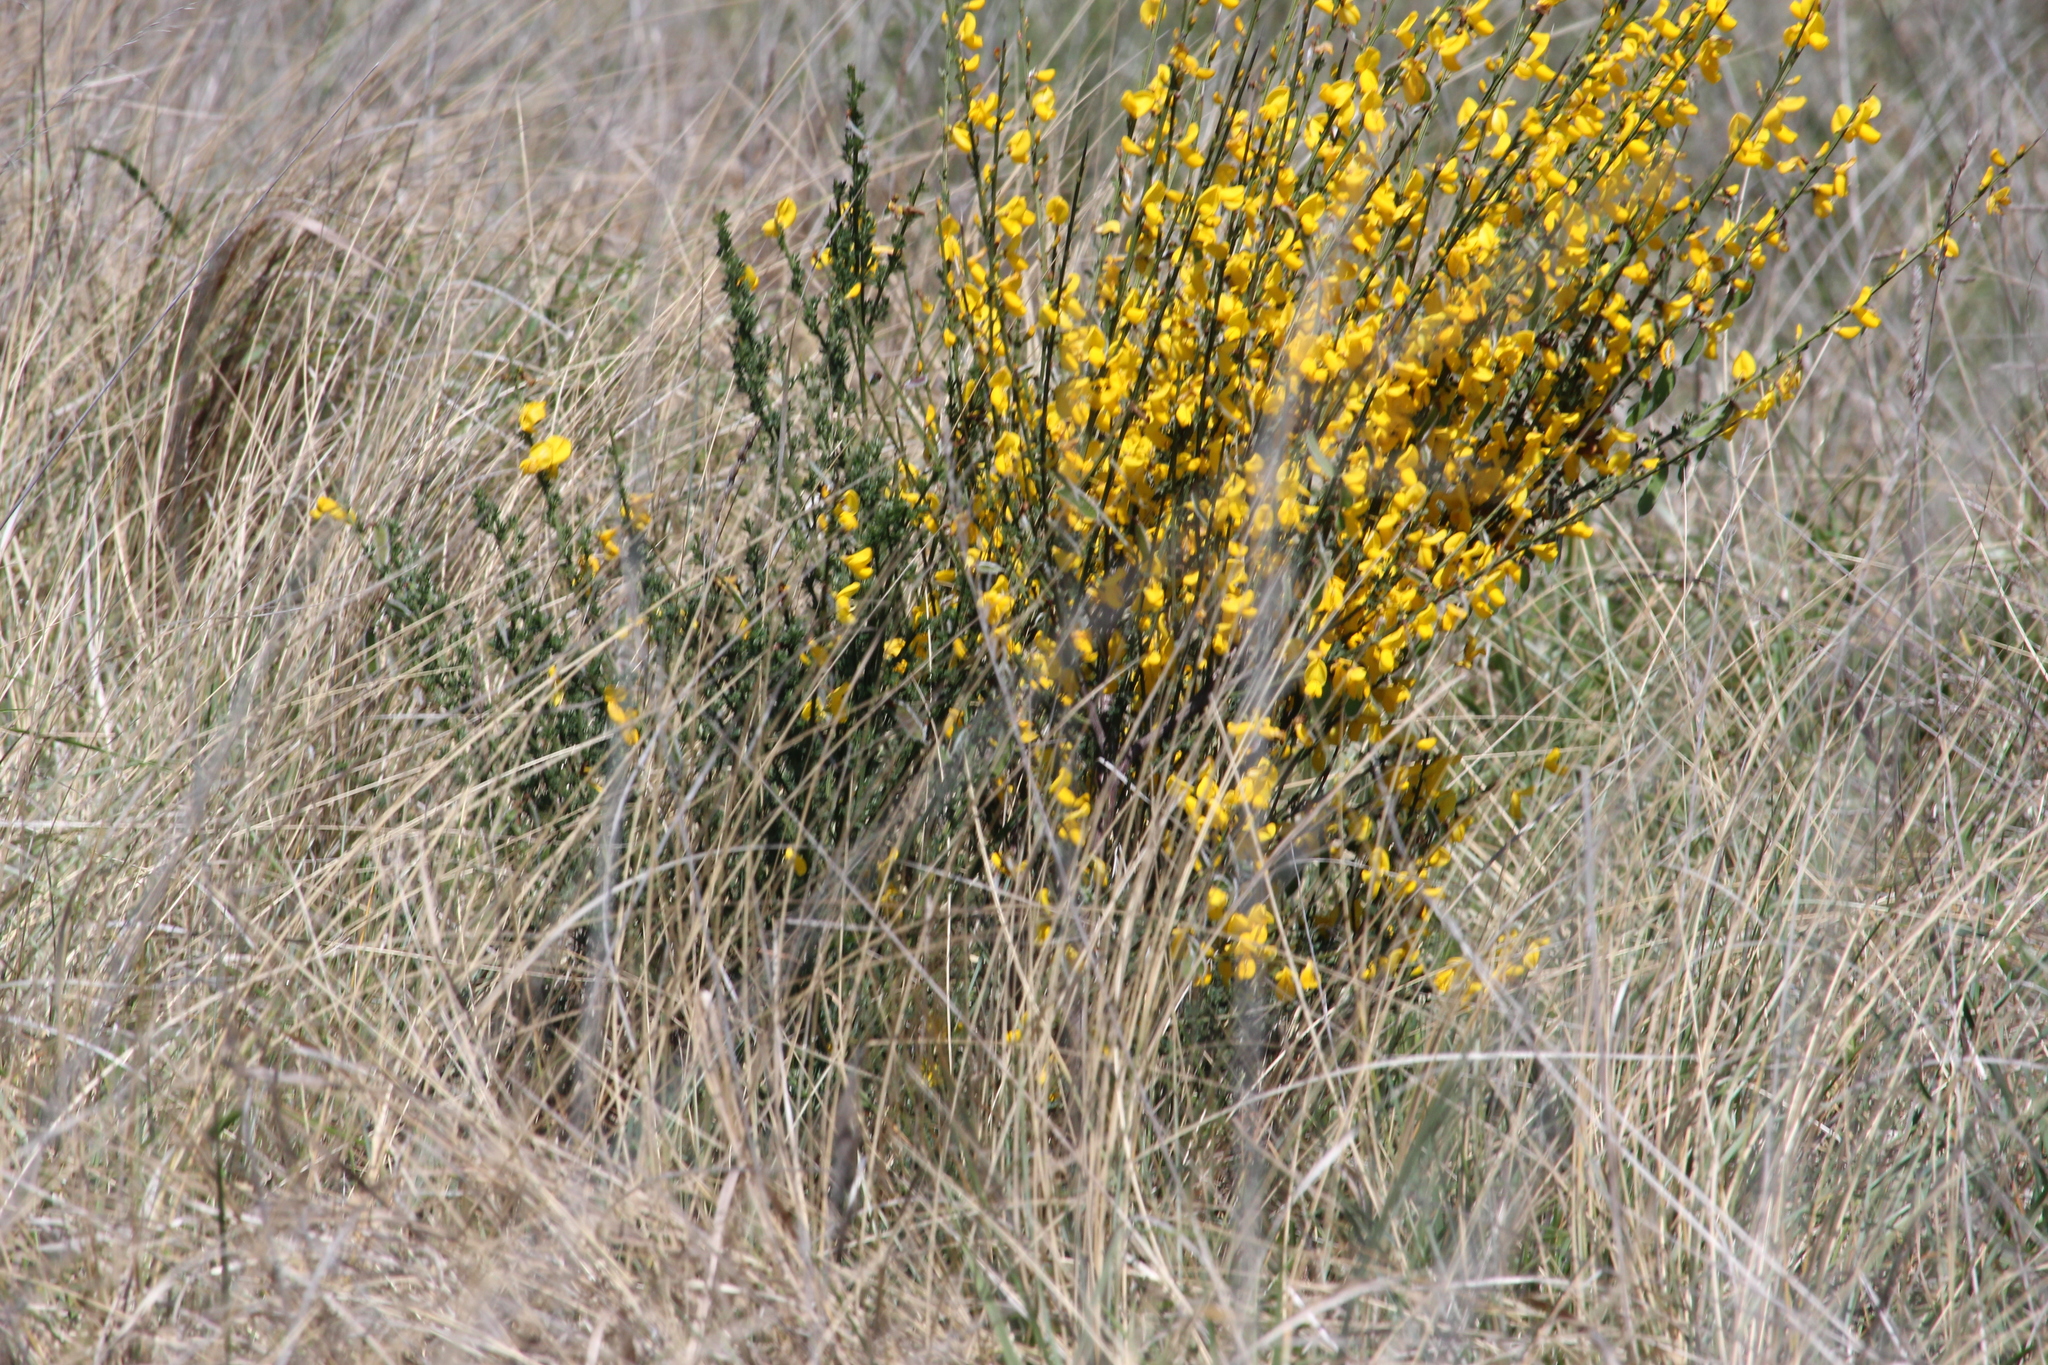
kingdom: Plantae
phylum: Tracheophyta
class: Magnoliopsida
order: Fabales
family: Fabaceae
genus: Cytisus
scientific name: Cytisus scoparius
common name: Scotch broom
